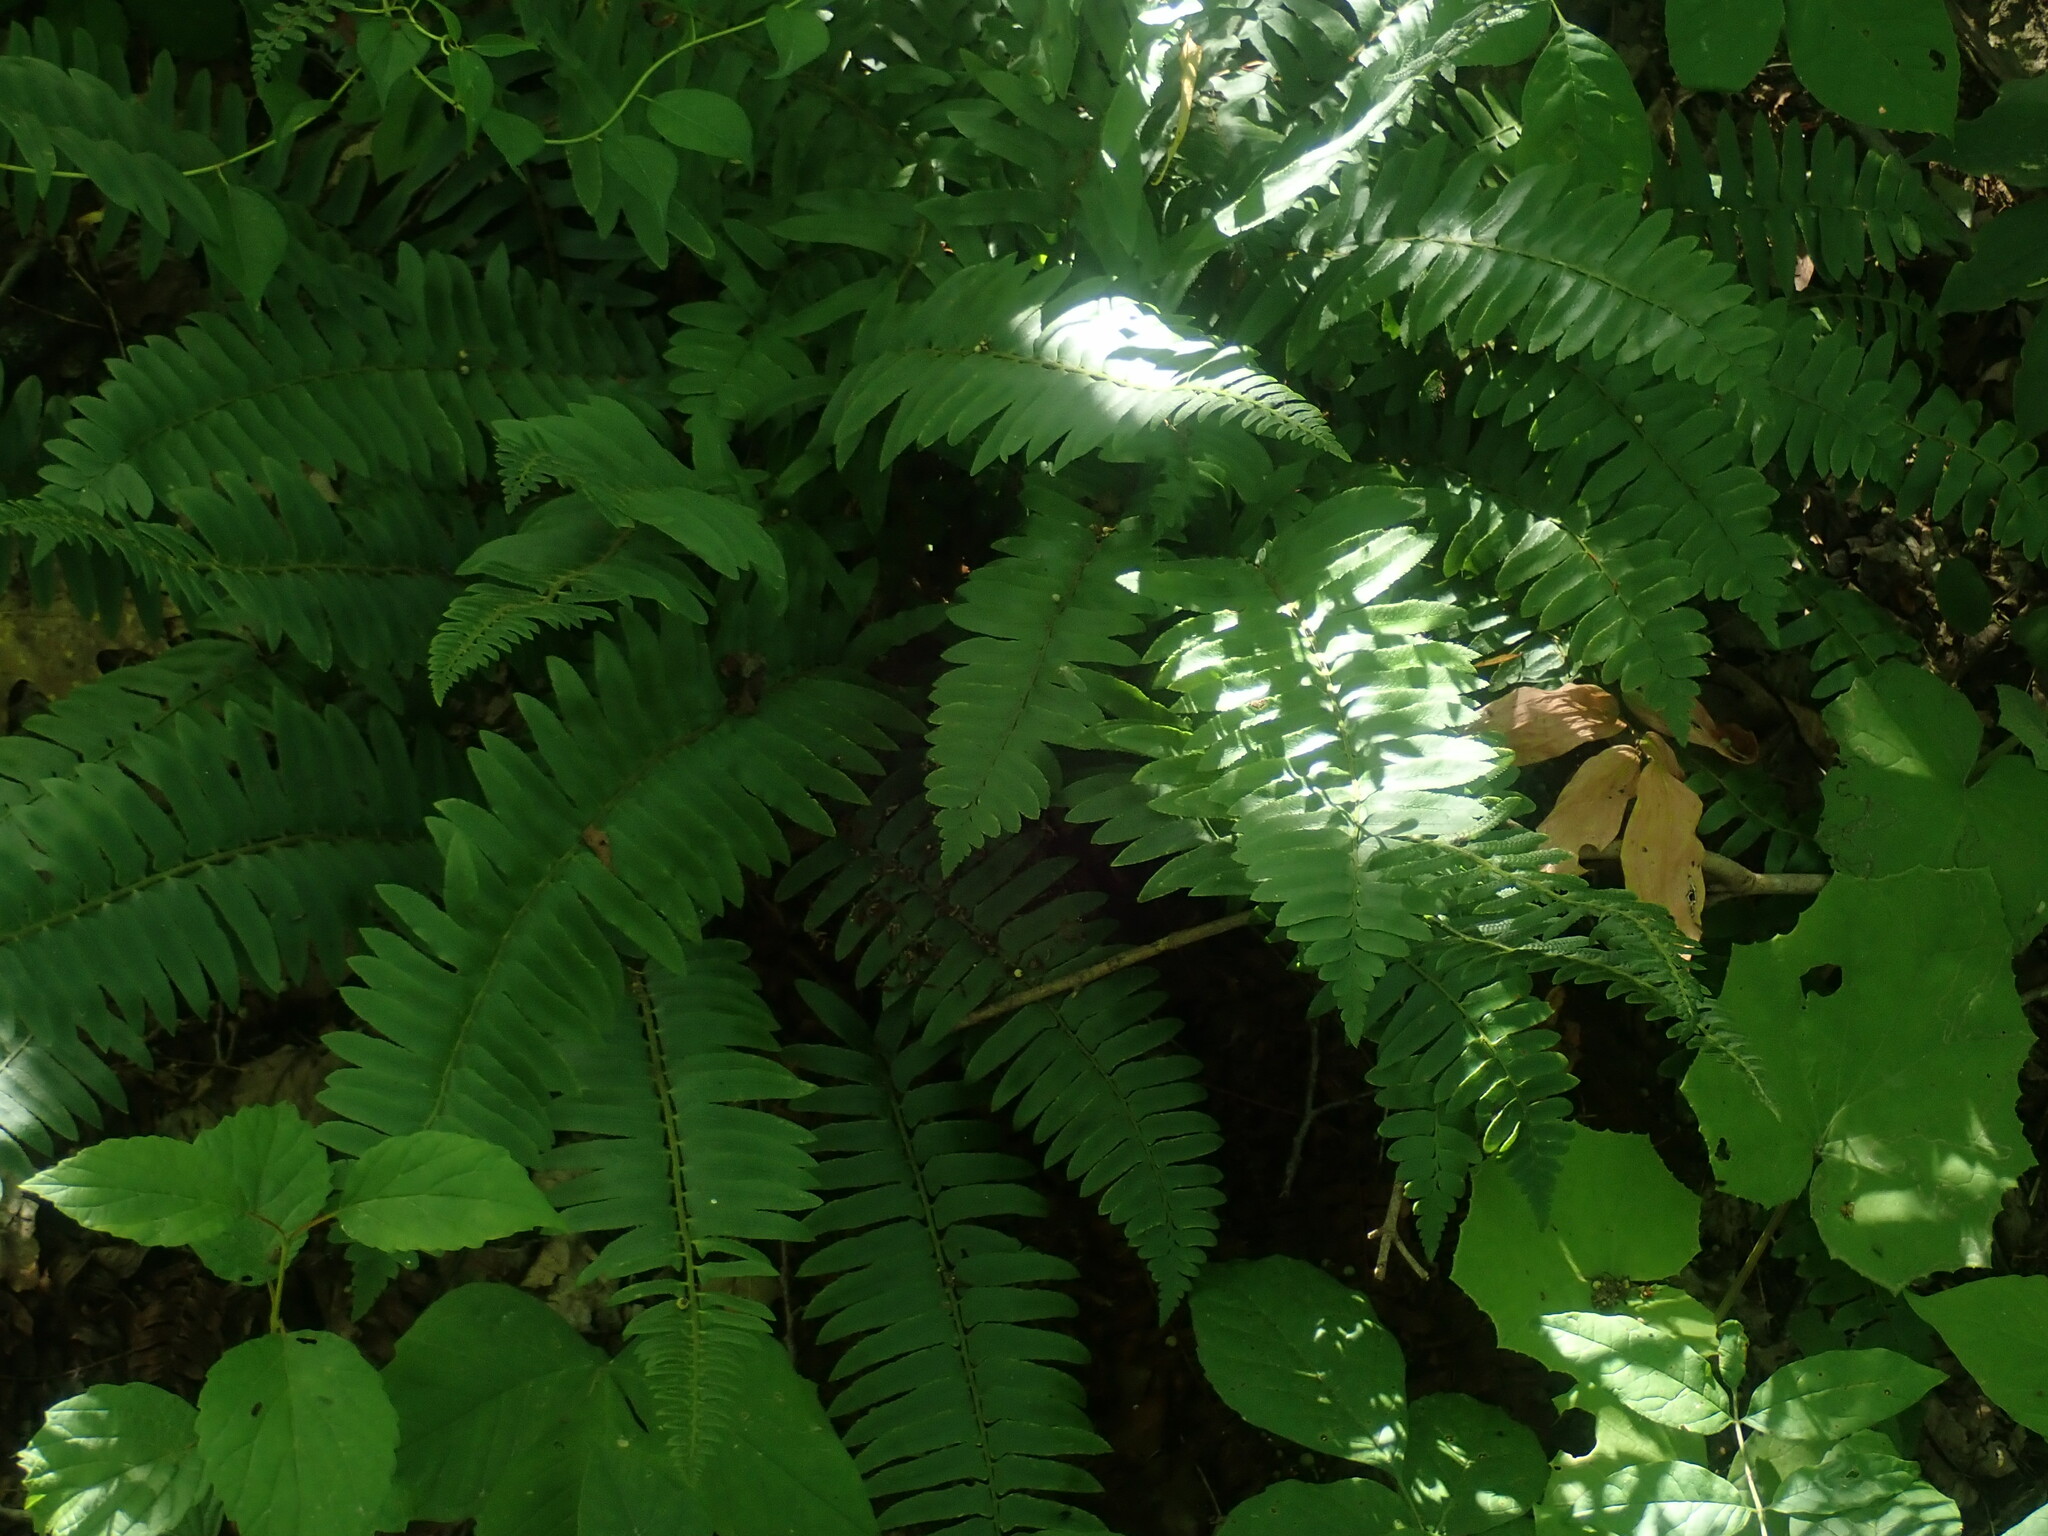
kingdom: Plantae
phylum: Tracheophyta
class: Polypodiopsida
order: Polypodiales
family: Dryopteridaceae
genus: Polystichum
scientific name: Polystichum acrostichoides
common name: Christmas fern
